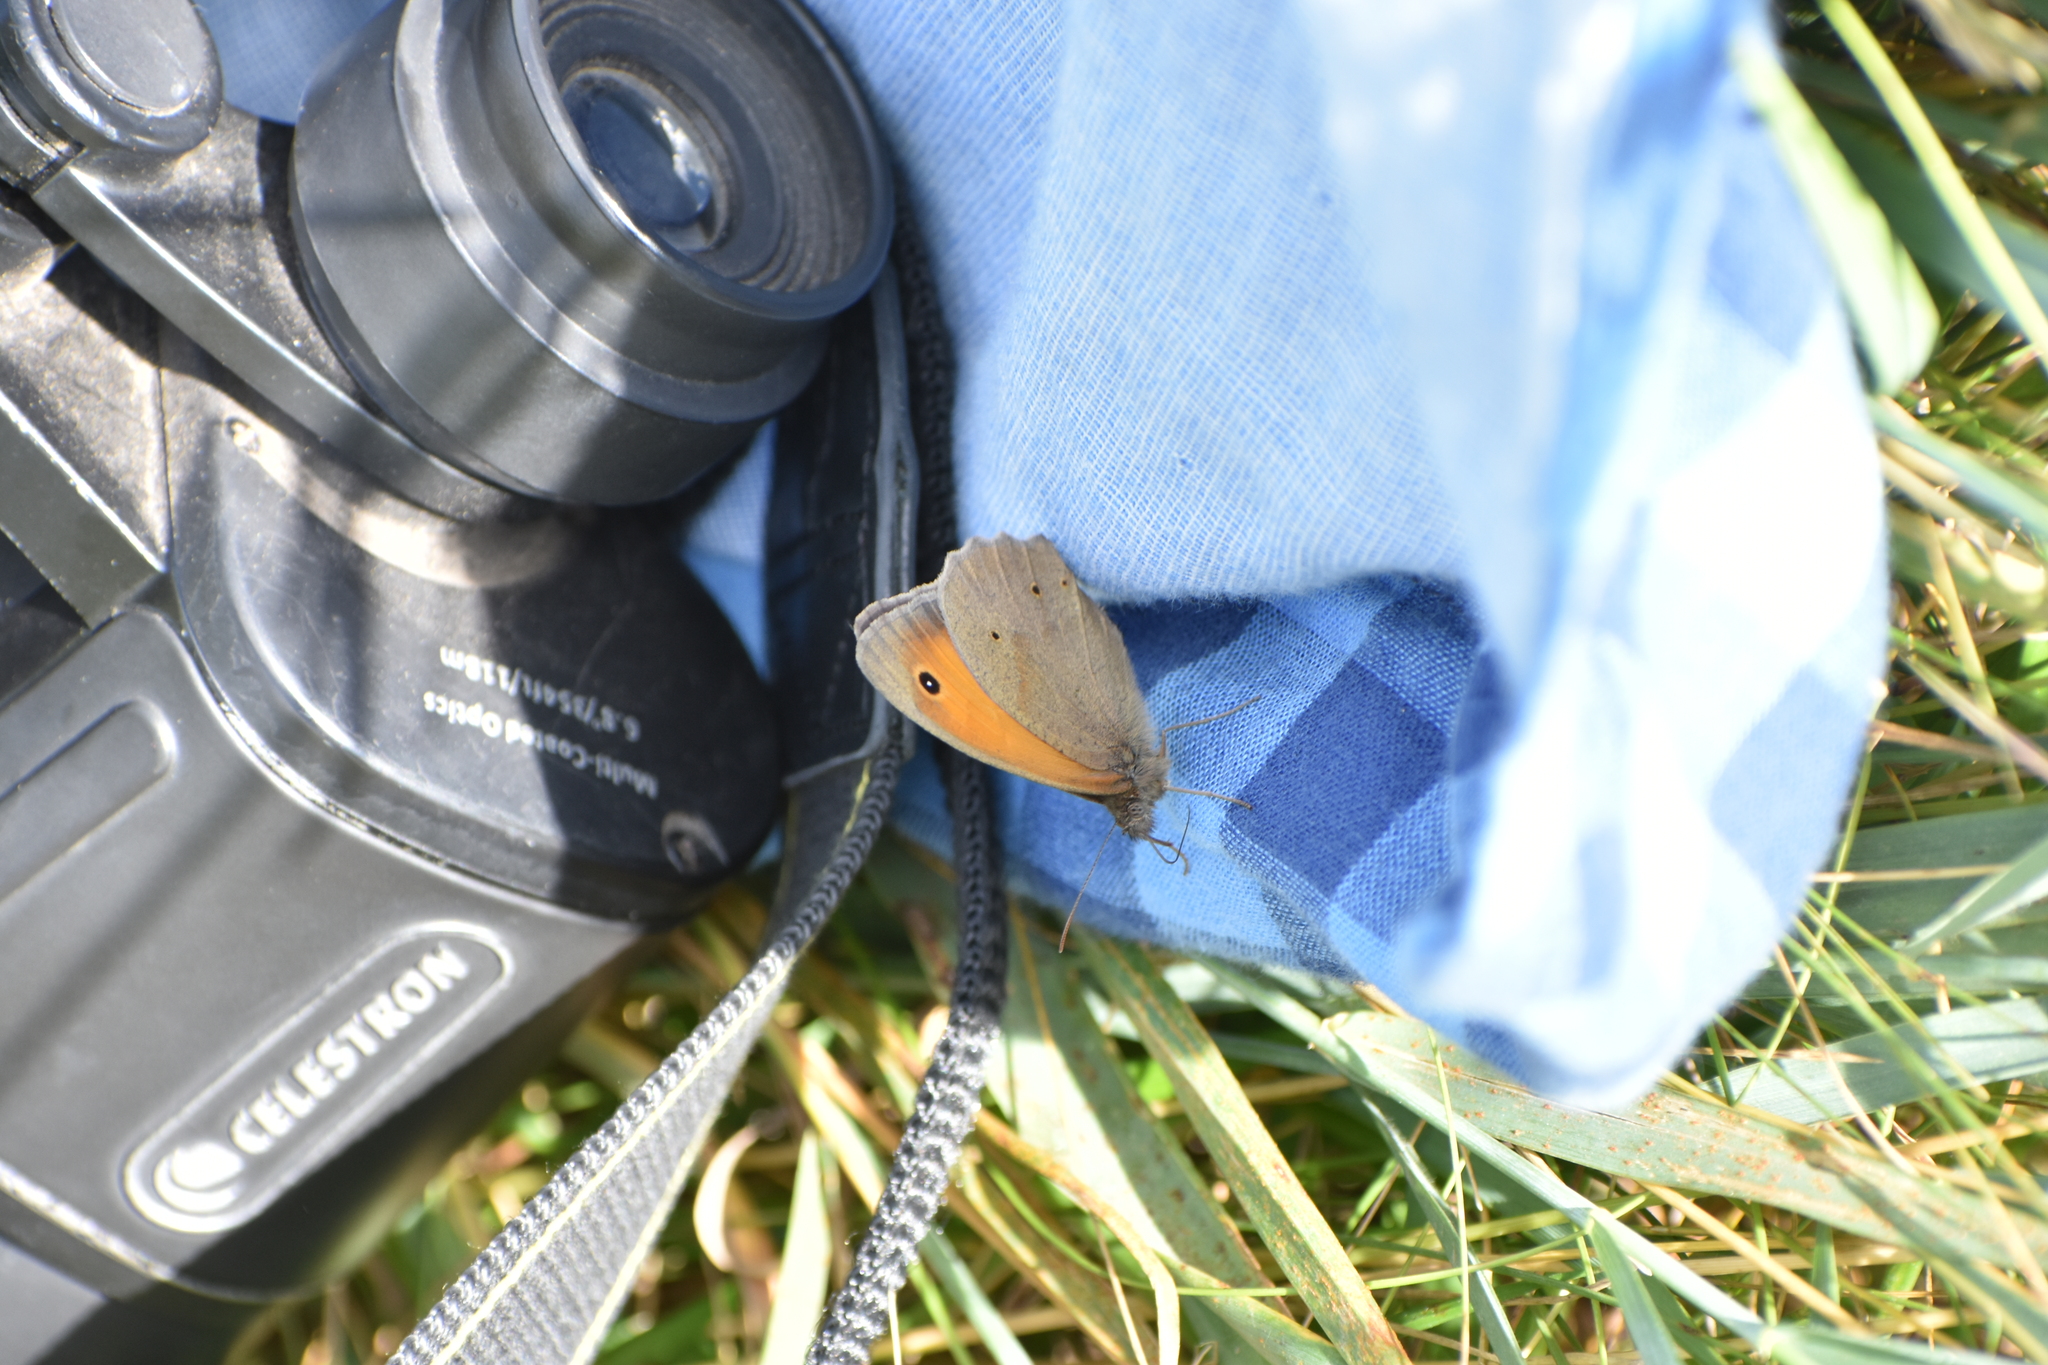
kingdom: Animalia
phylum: Arthropoda
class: Insecta
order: Lepidoptera
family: Nymphalidae
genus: Maniola
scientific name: Maniola jurtina
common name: Meadow brown
